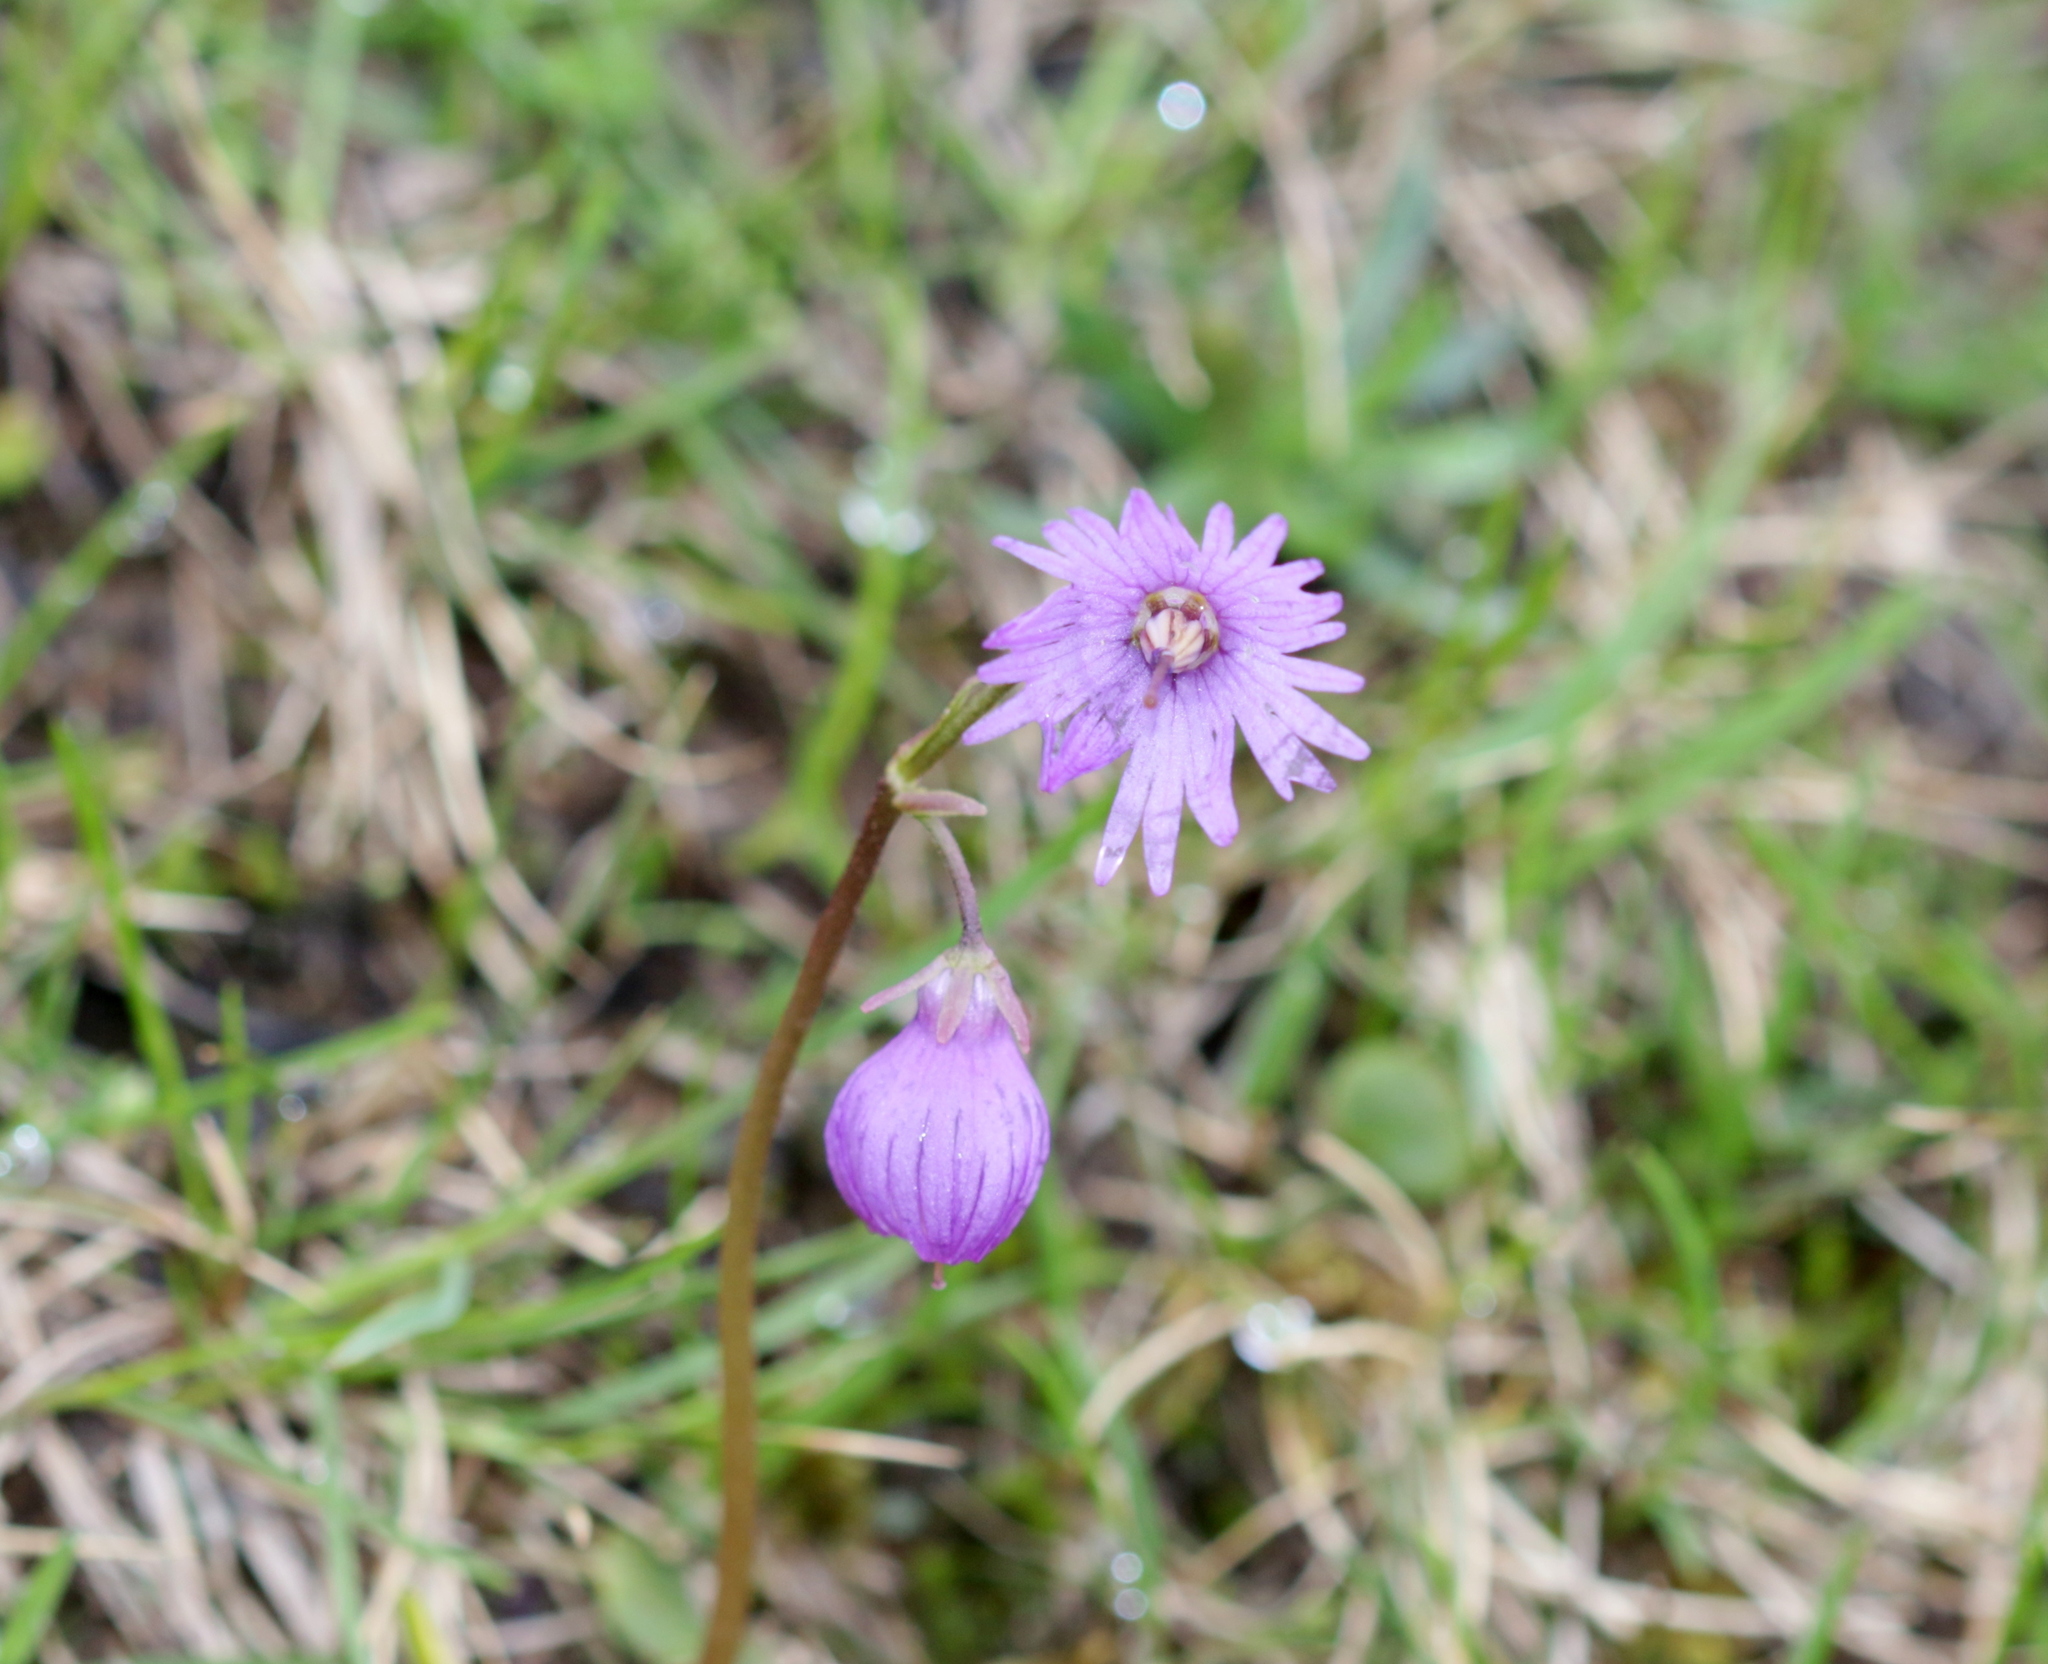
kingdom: Plantae
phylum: Tracheophyta
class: Magnoliopsida
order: Ericales
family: Primulaceae
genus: Soldanella
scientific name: Soldanella alpina
